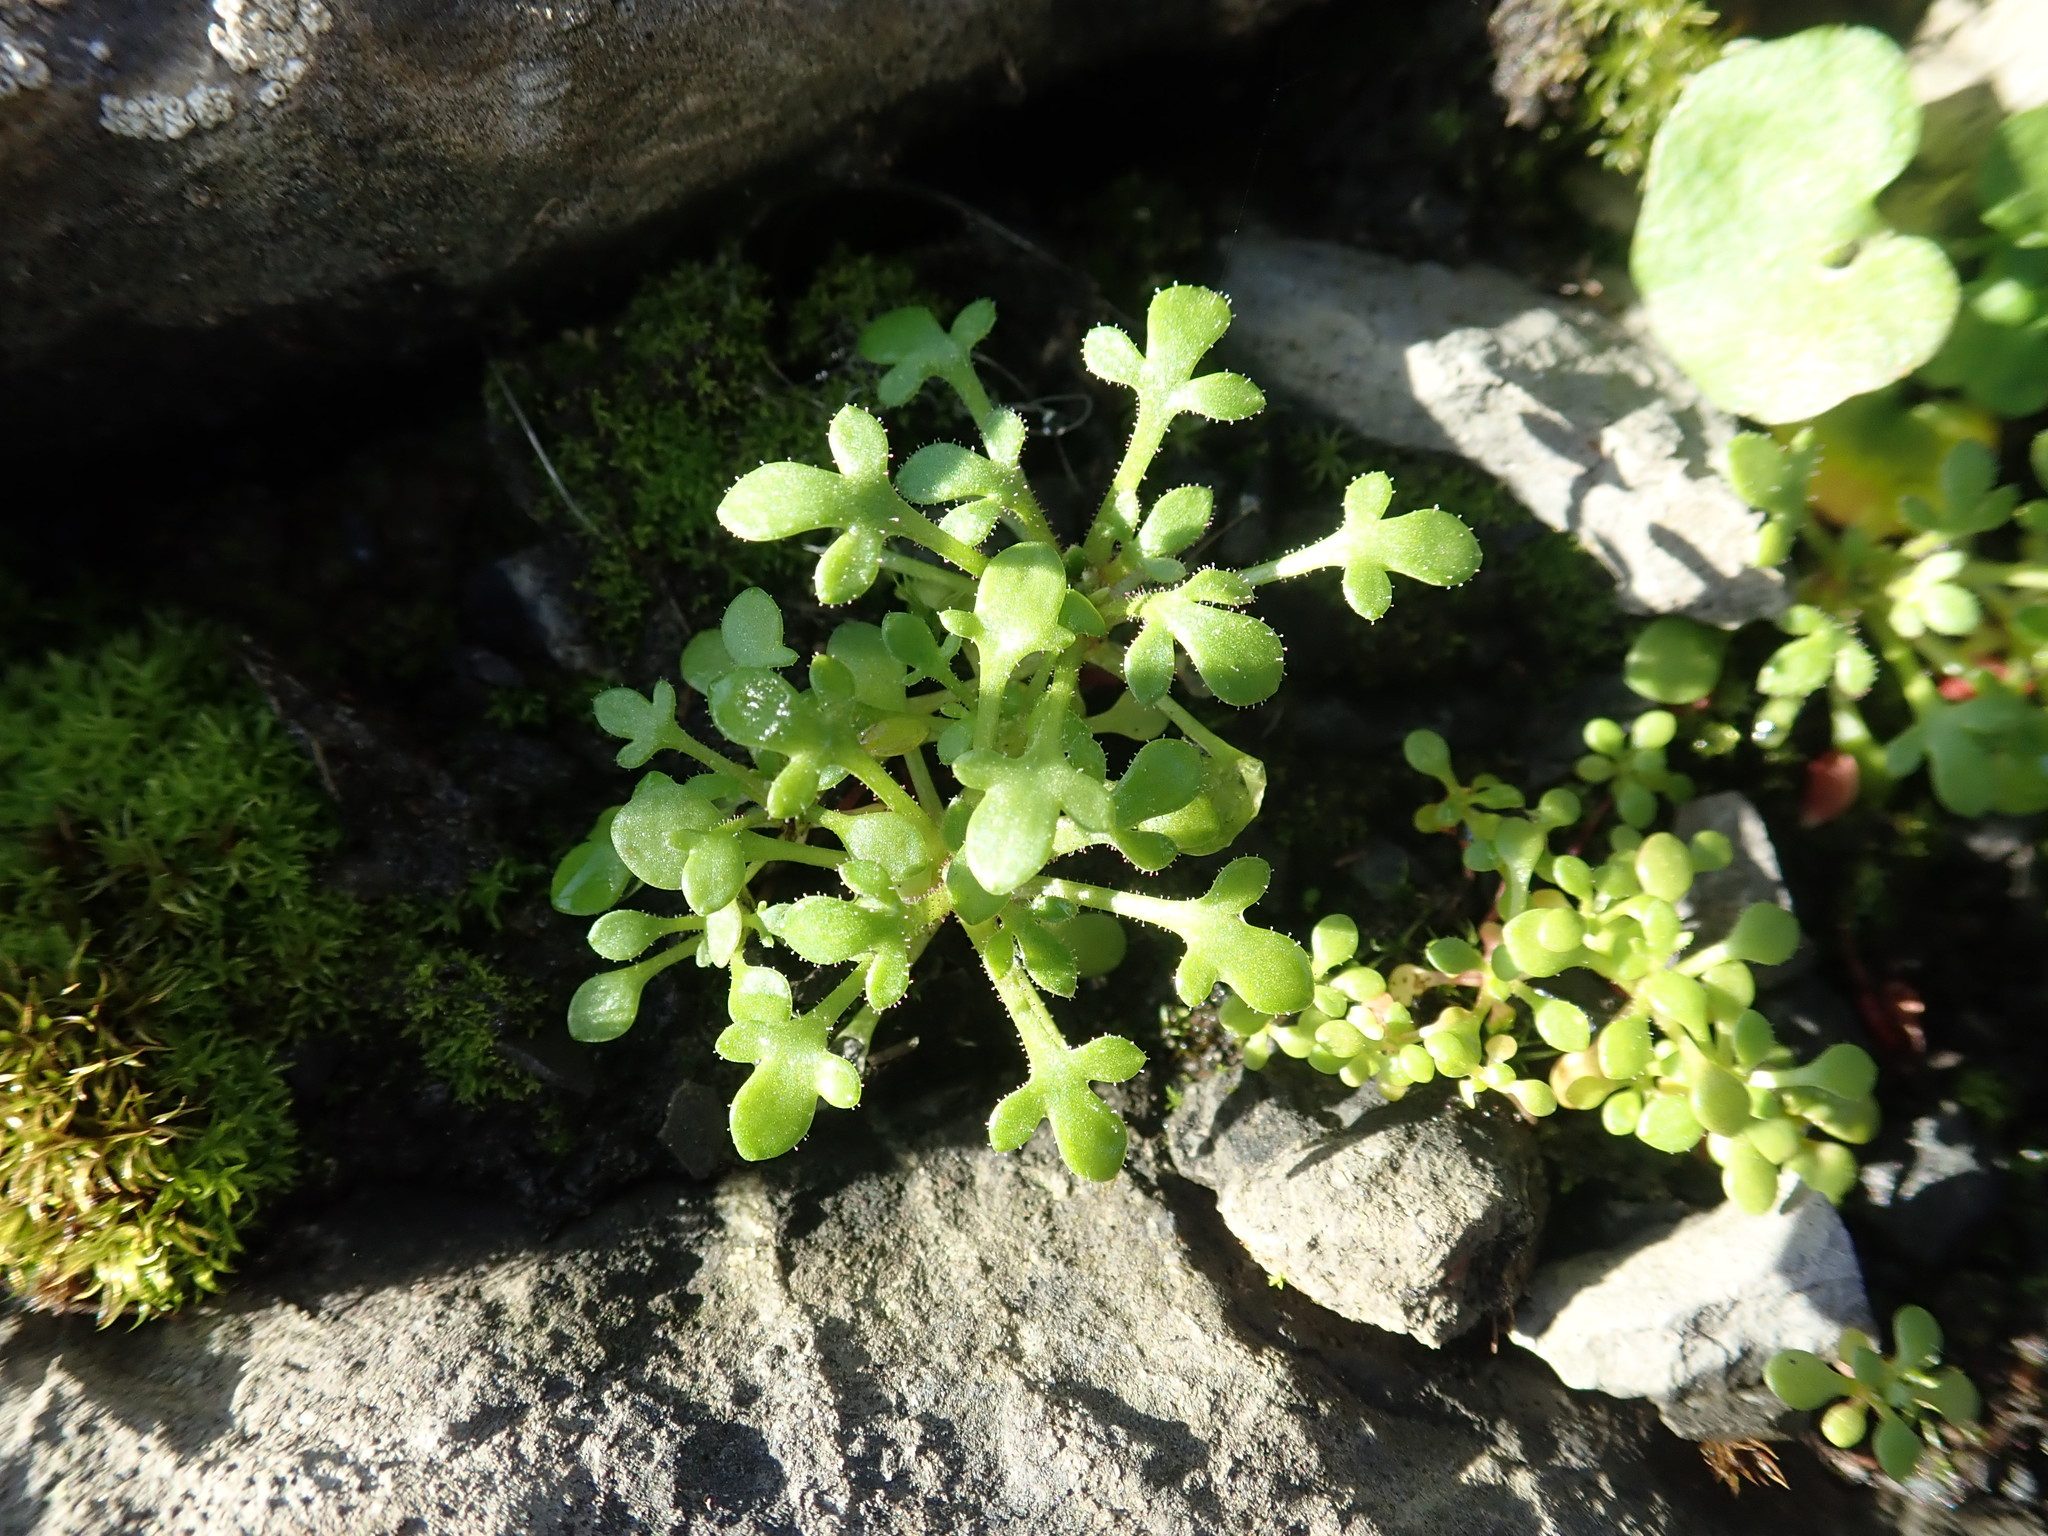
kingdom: Plantae
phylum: Tracheophyta
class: Magnoliopsida
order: Saxifragales
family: Saxifragaceae
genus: Saxifraga
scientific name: Saxifraga tridactylites
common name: Rue-leaved saxifrage
